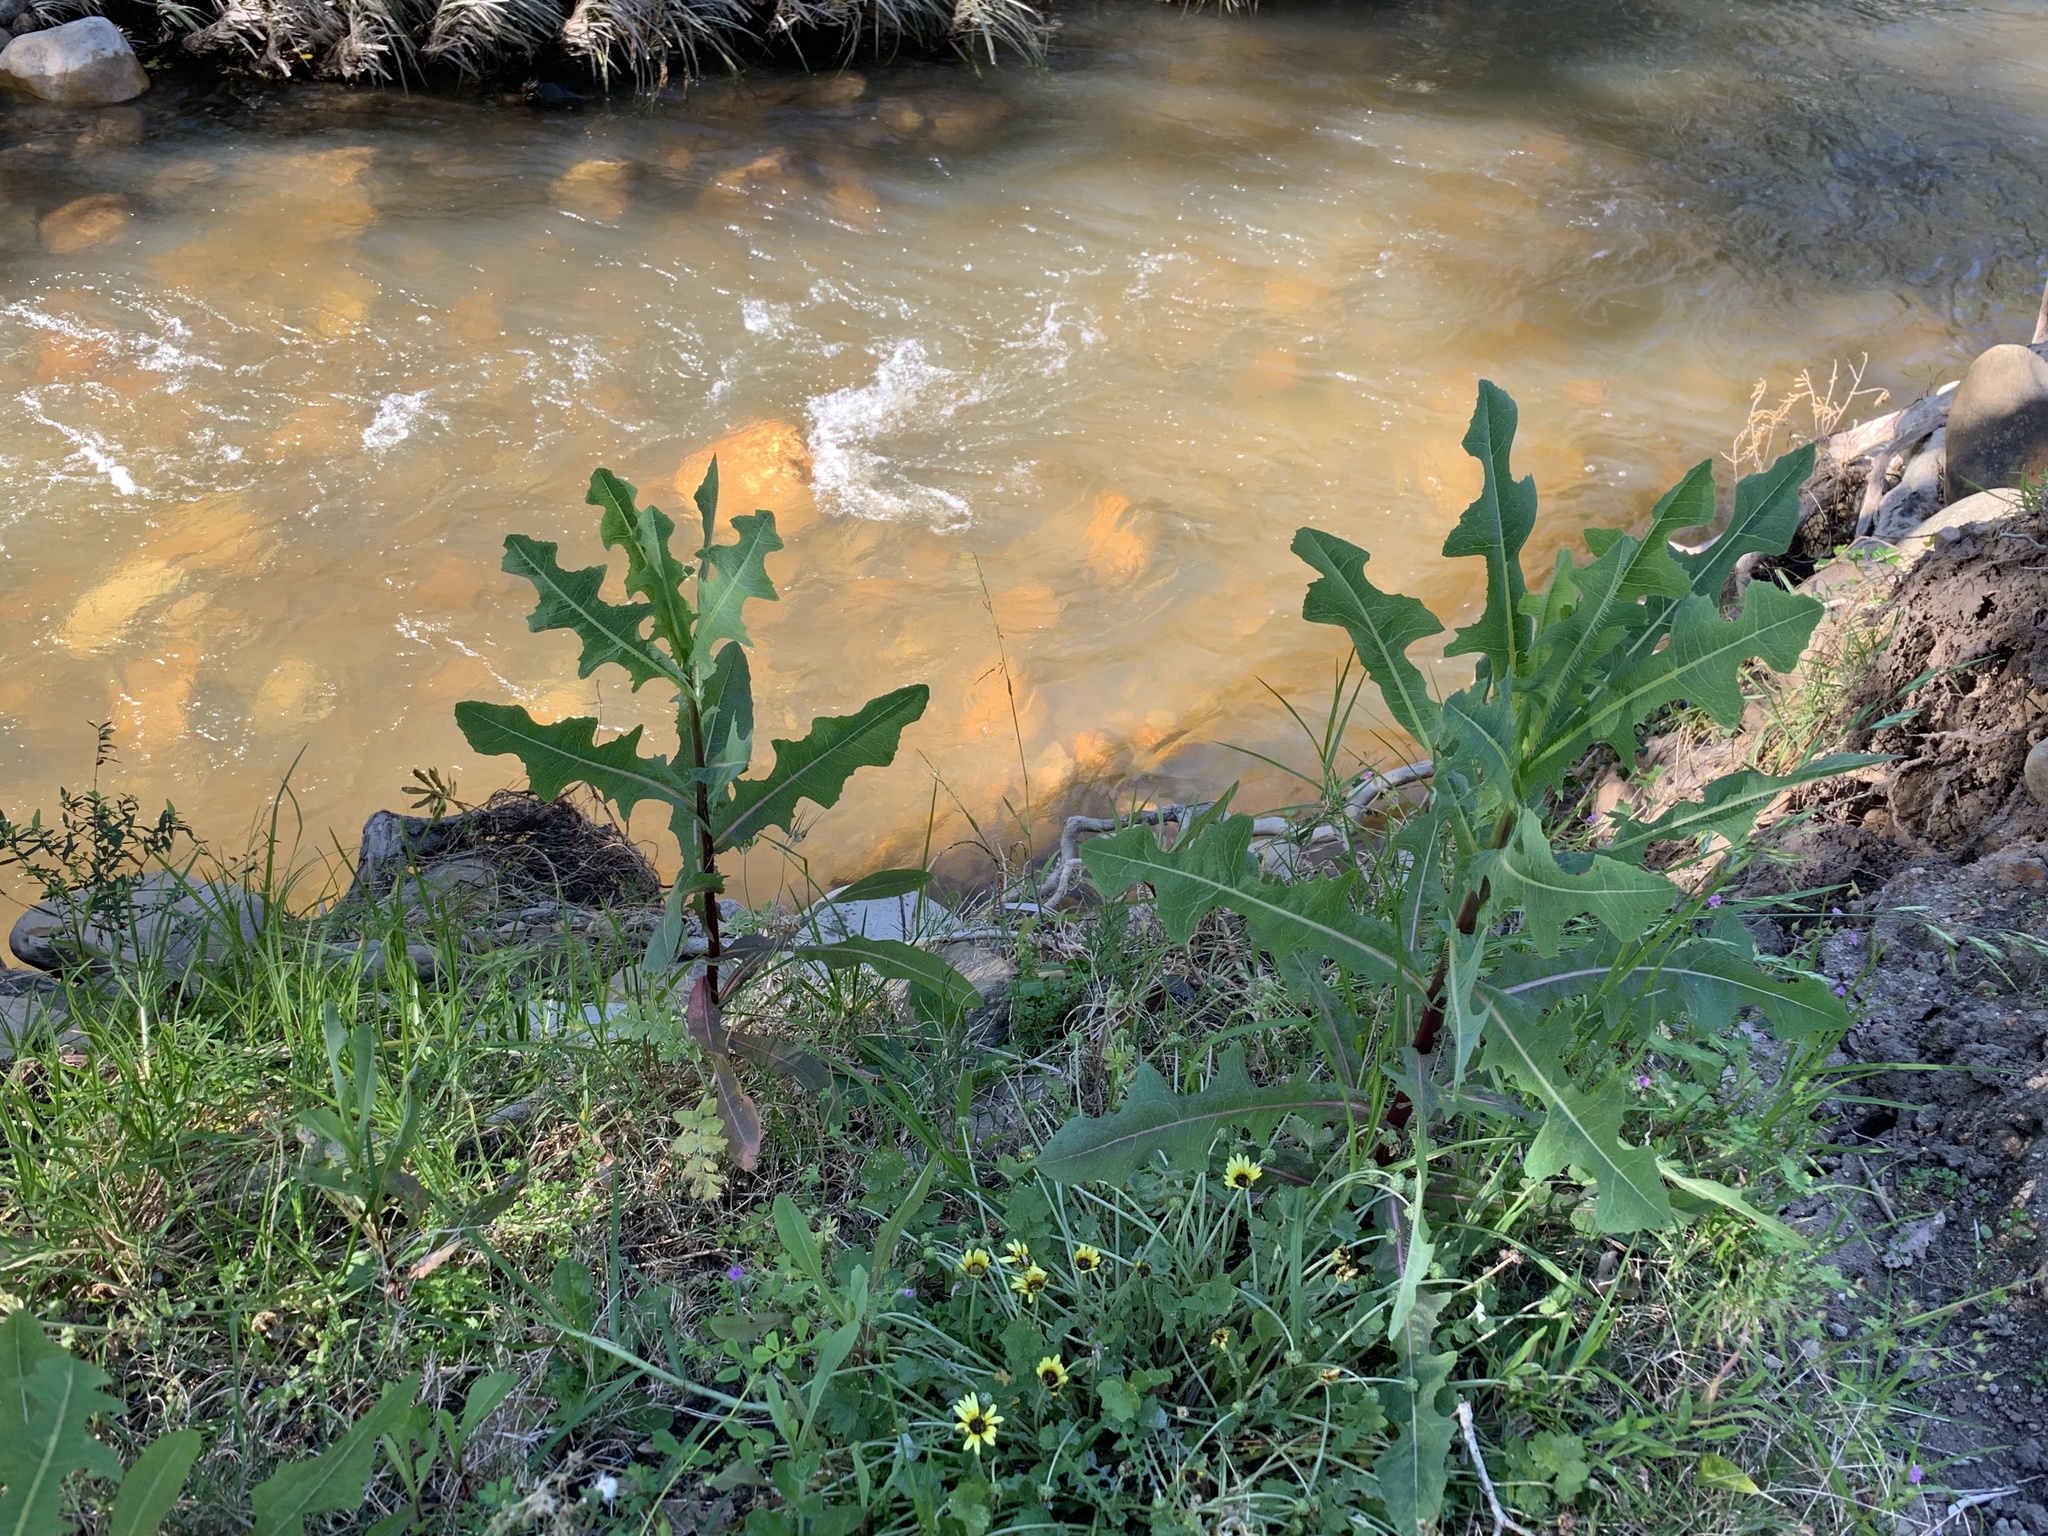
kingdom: Plantae
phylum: Tracheophyta
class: Magnoliopsida
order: Asterales
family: Asteraceae
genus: Lactuca
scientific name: Lactuca serriola
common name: Prickly lettuce
